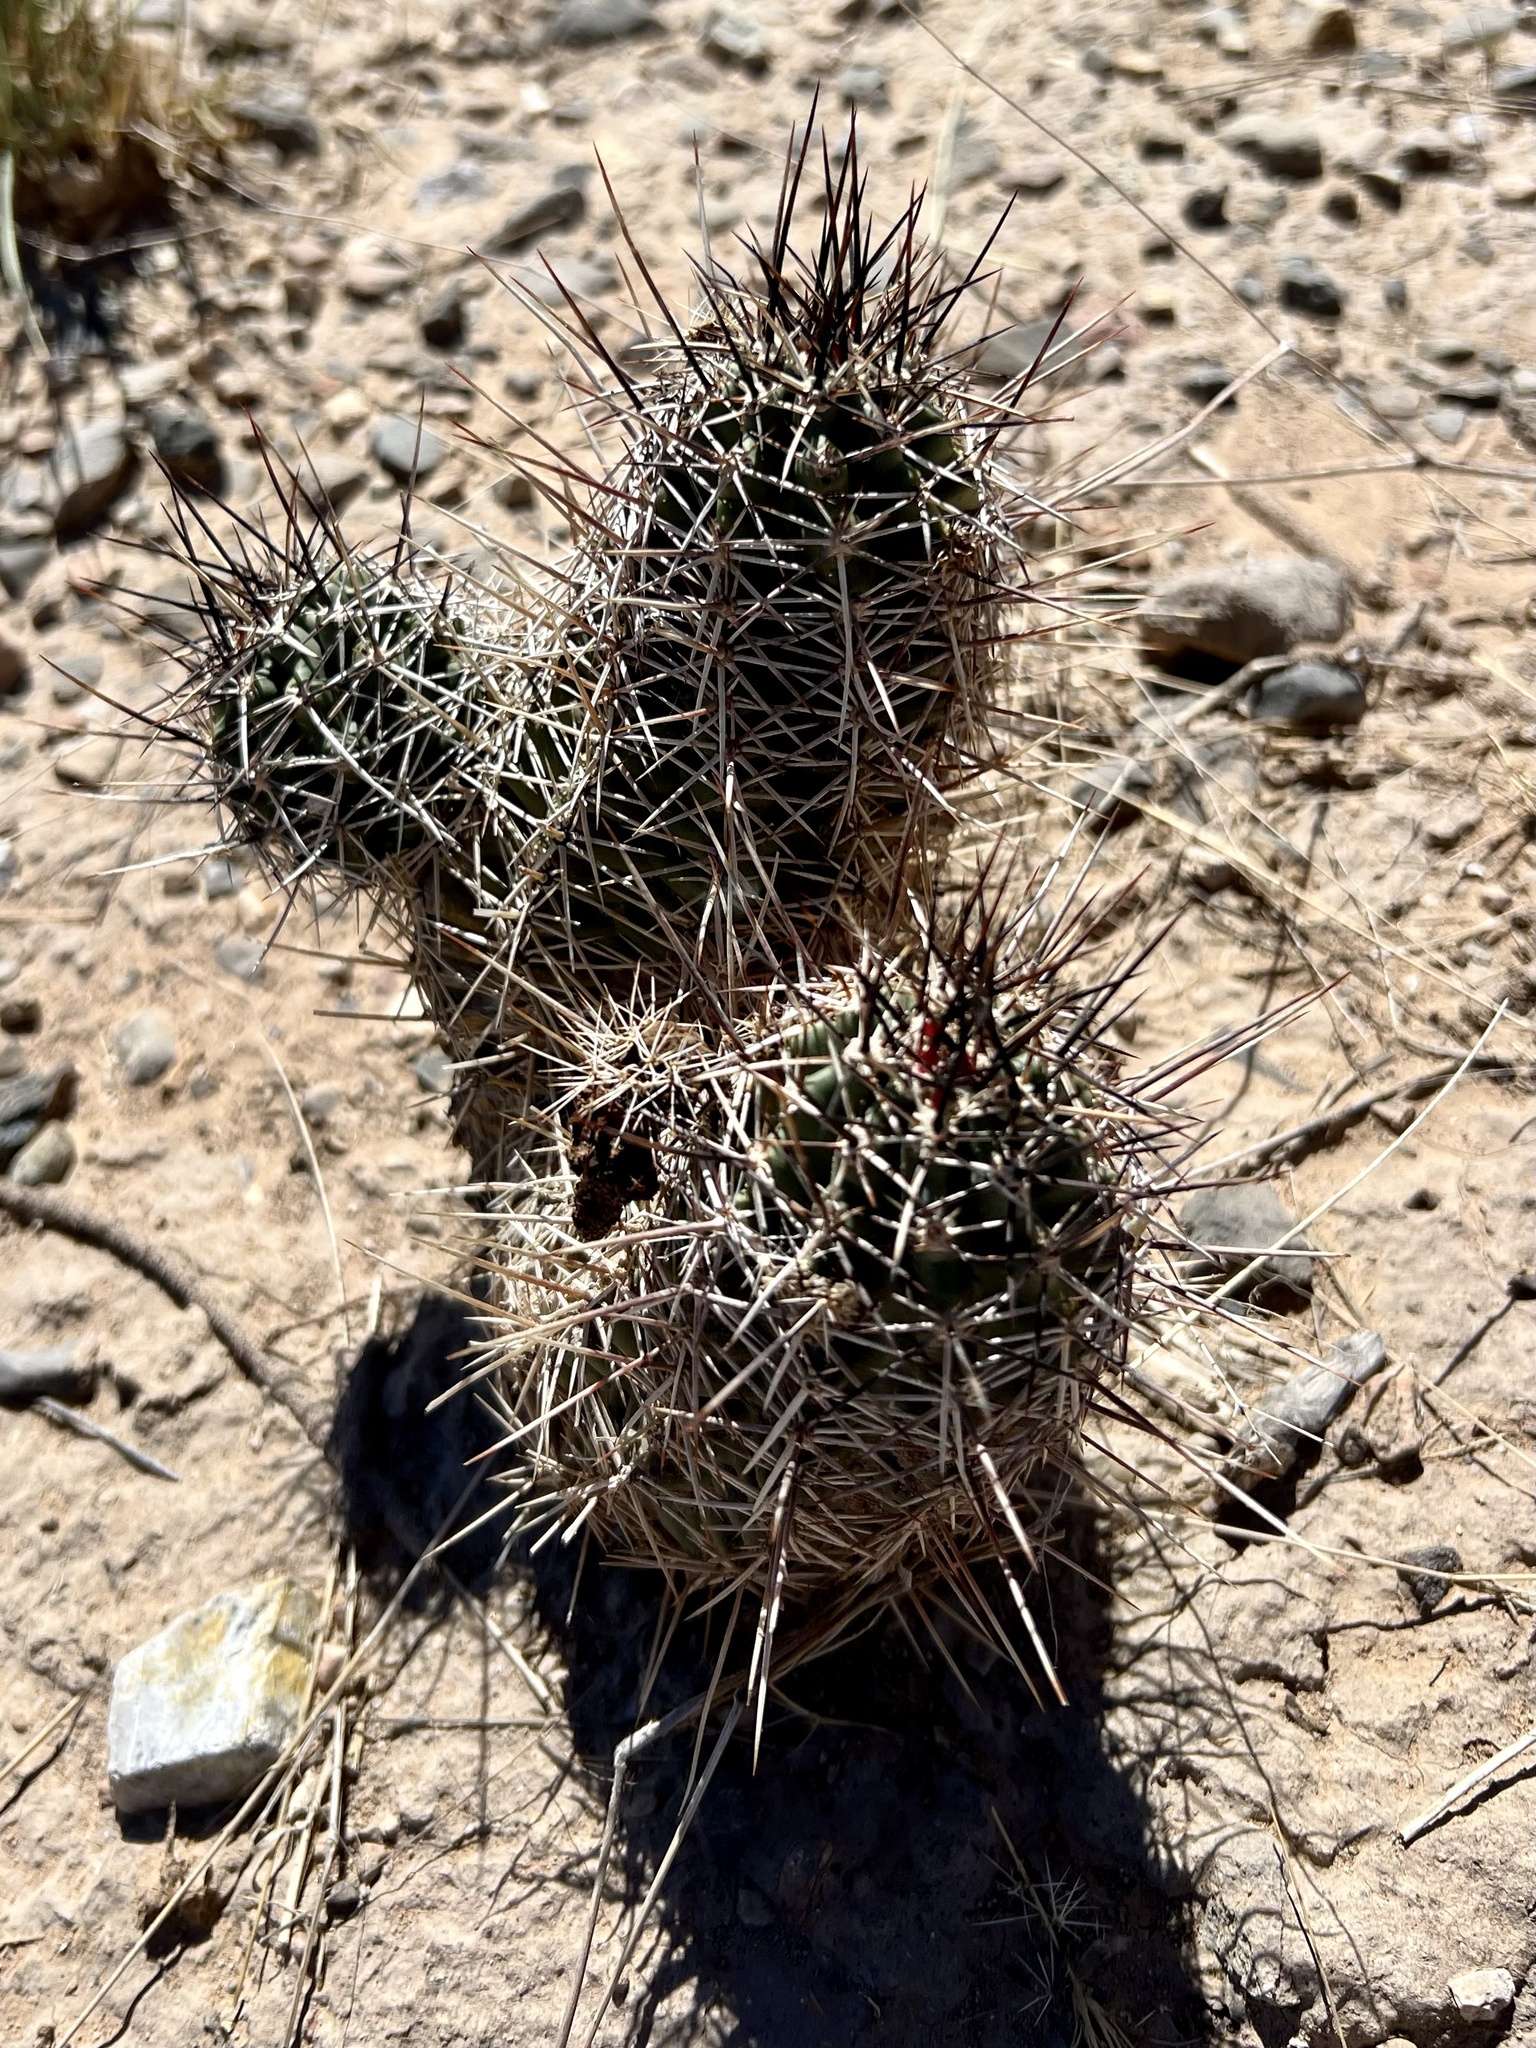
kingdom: Plantae
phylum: Tracheophyta
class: Magnoliopsida
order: Caryophyllales
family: Cactaceae
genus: Echinocereus
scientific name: Echinocereus fendleri
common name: Fendler's hedgehog cactus
